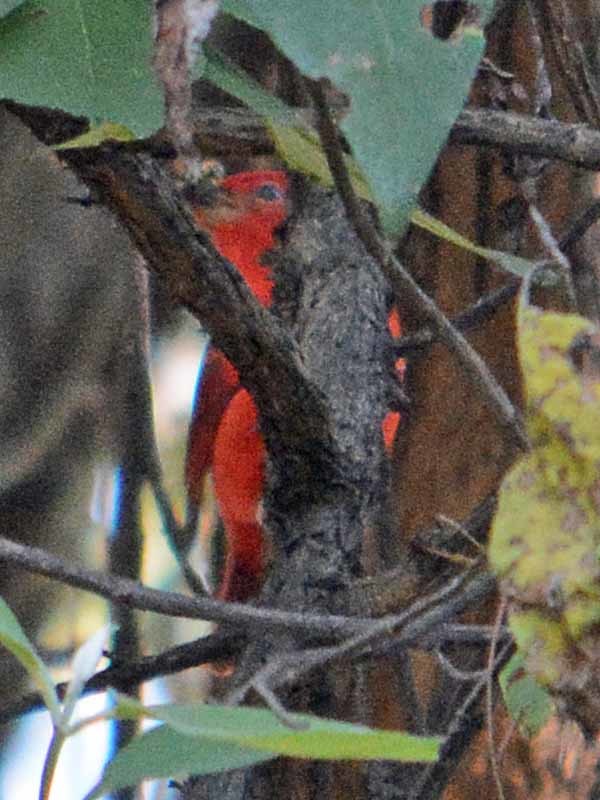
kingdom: Animalia
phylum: Chordata
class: Aves
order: Passeriformes
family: Cardinalidae
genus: Piranga
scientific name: Piranga rubra
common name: Summer tanager
